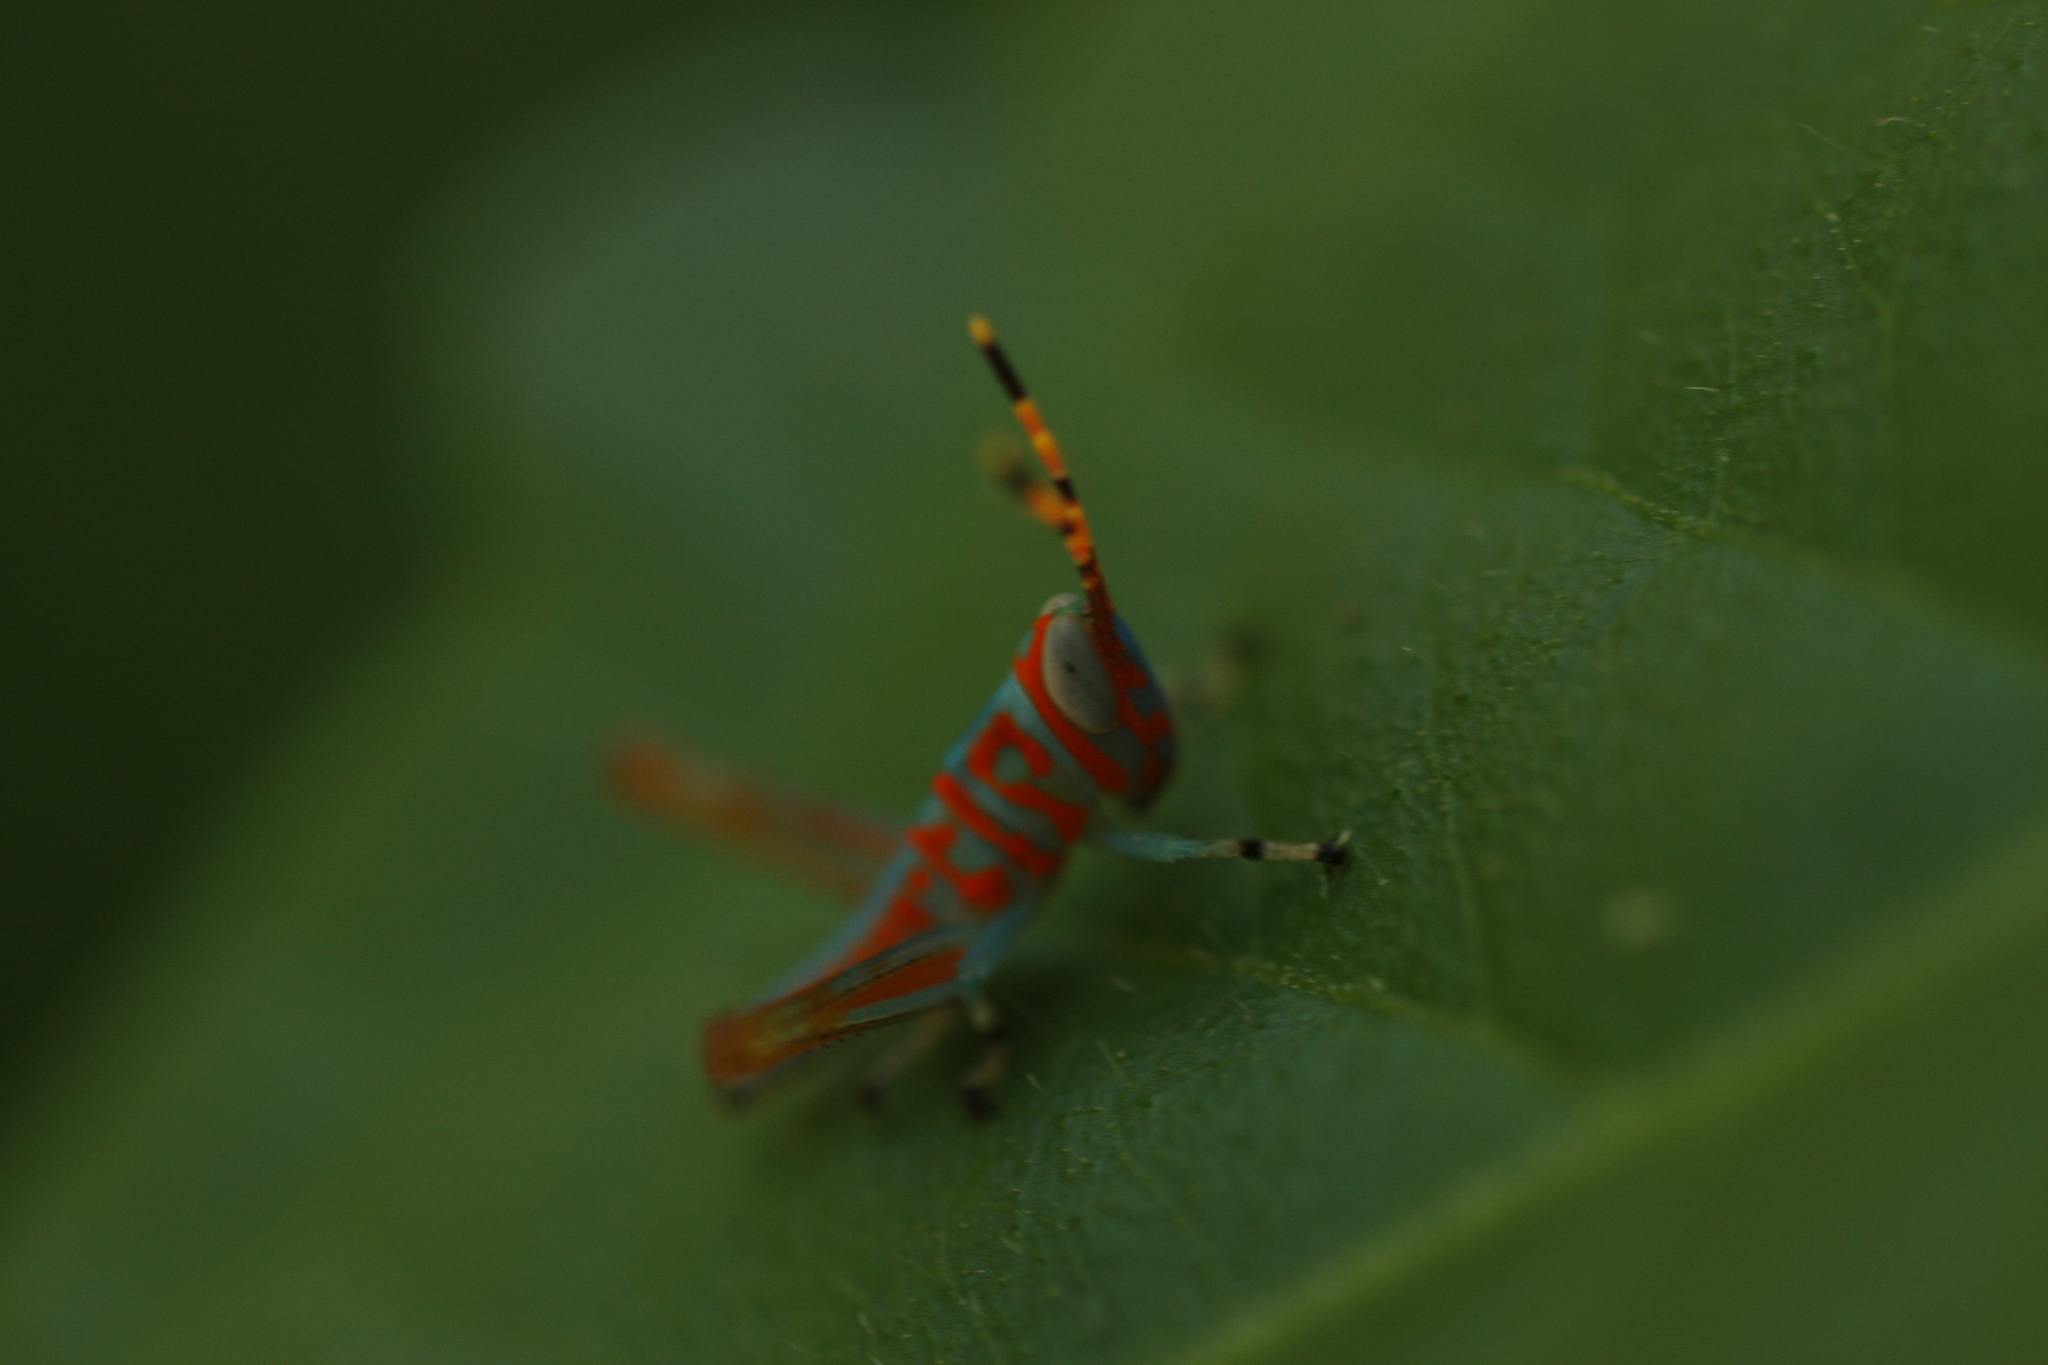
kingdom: Animalia
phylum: Arthropoda
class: Insecta
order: Orthoptera
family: Acrididae
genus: Pirithoicus
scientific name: Pirithoicus ophthalmicus
